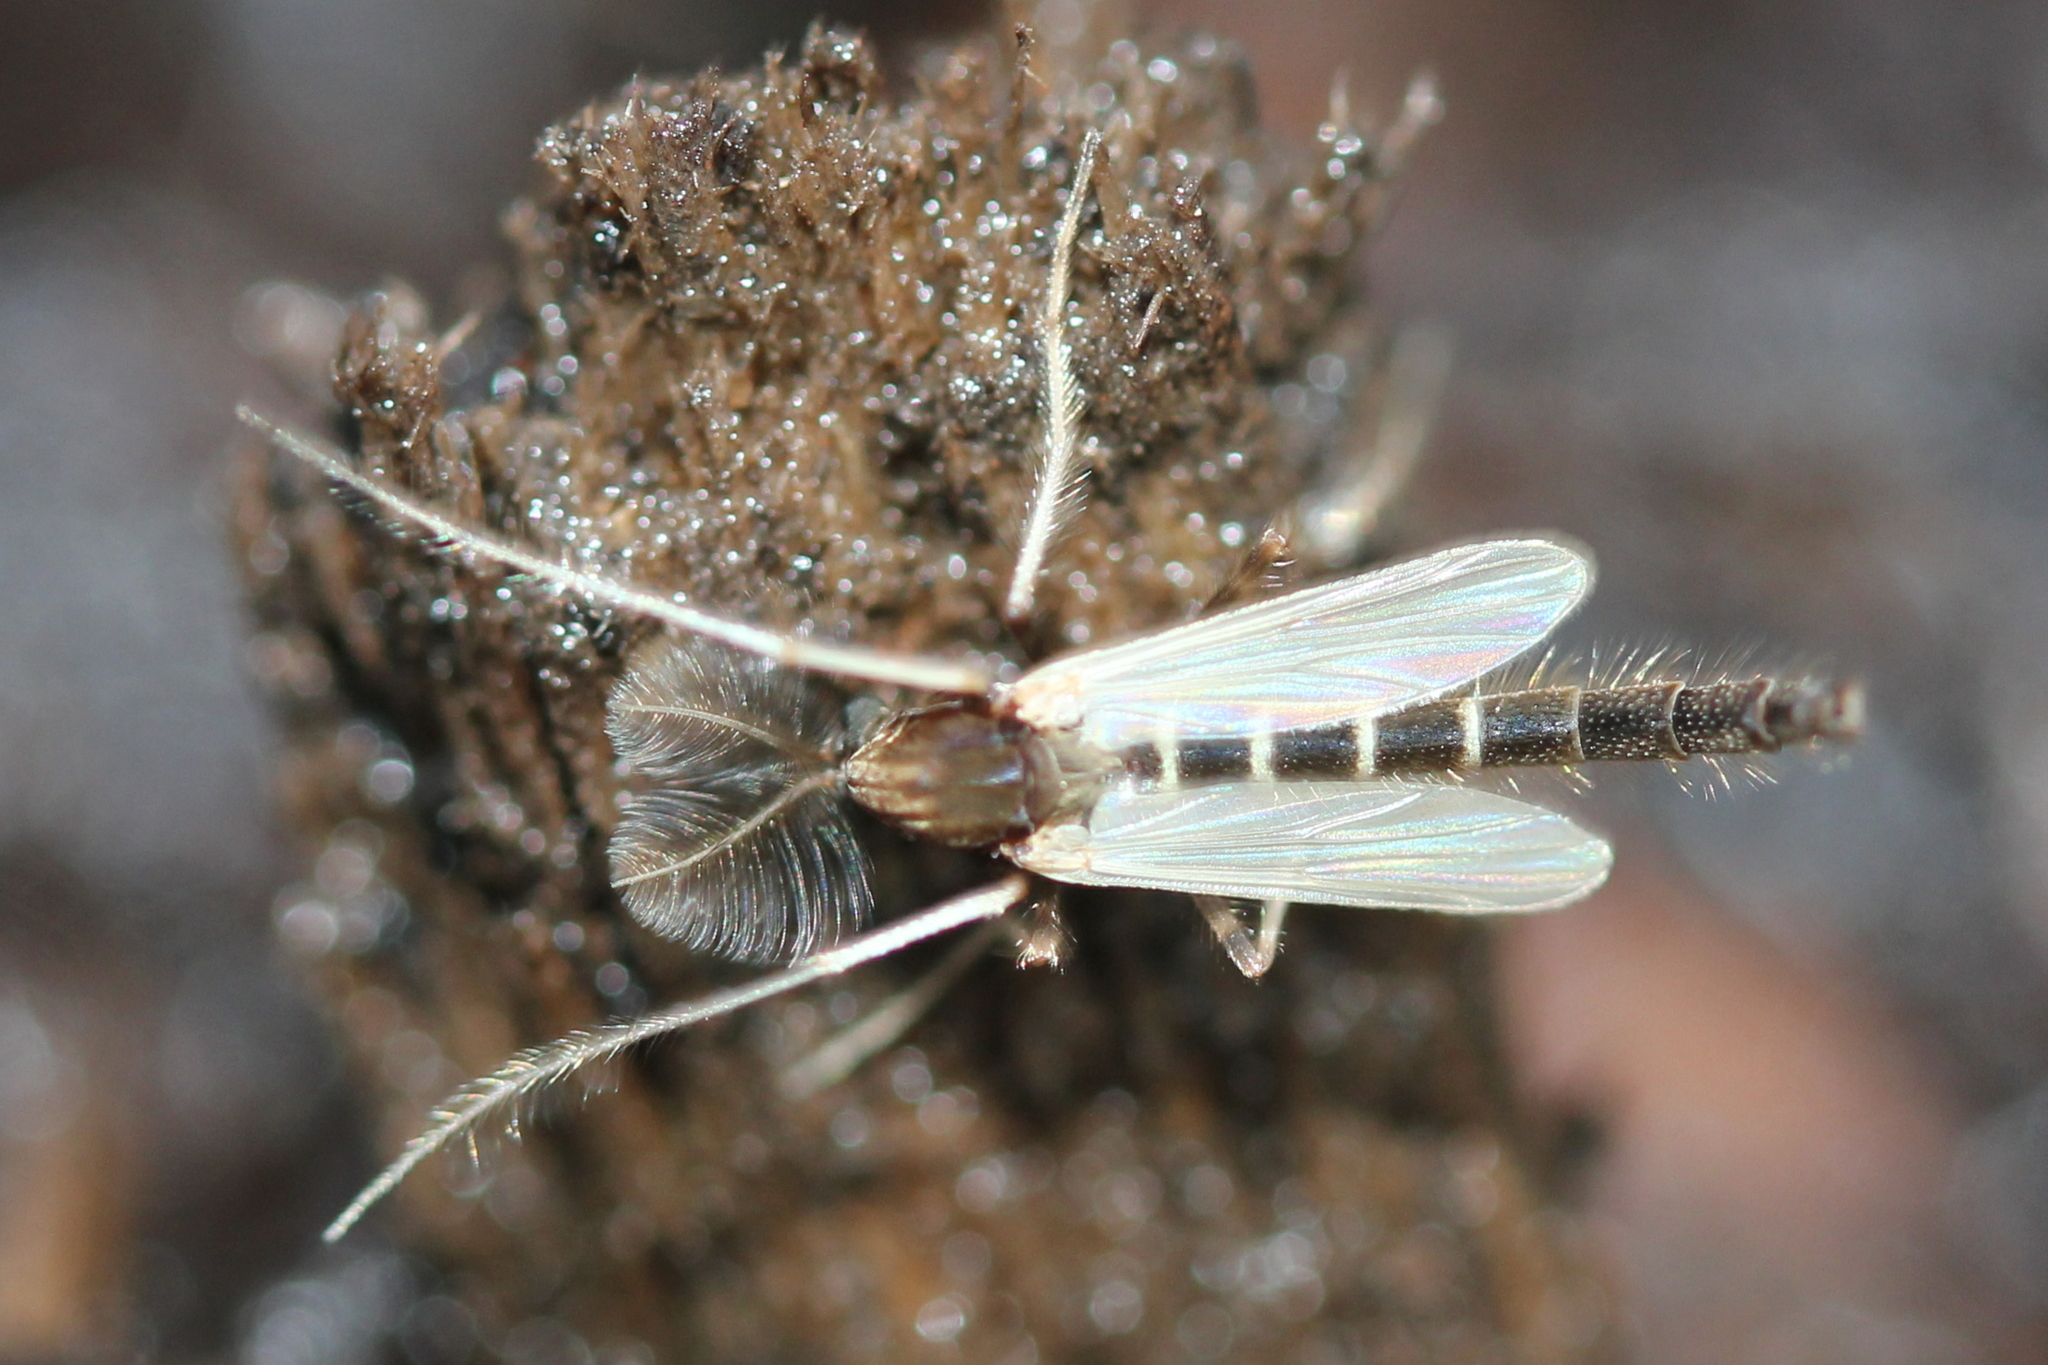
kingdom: Animalia
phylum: Arthropoda
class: Insecta
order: Diptera
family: Chironomidae
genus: Stictochironomus
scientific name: Stictochironomus albicrus
